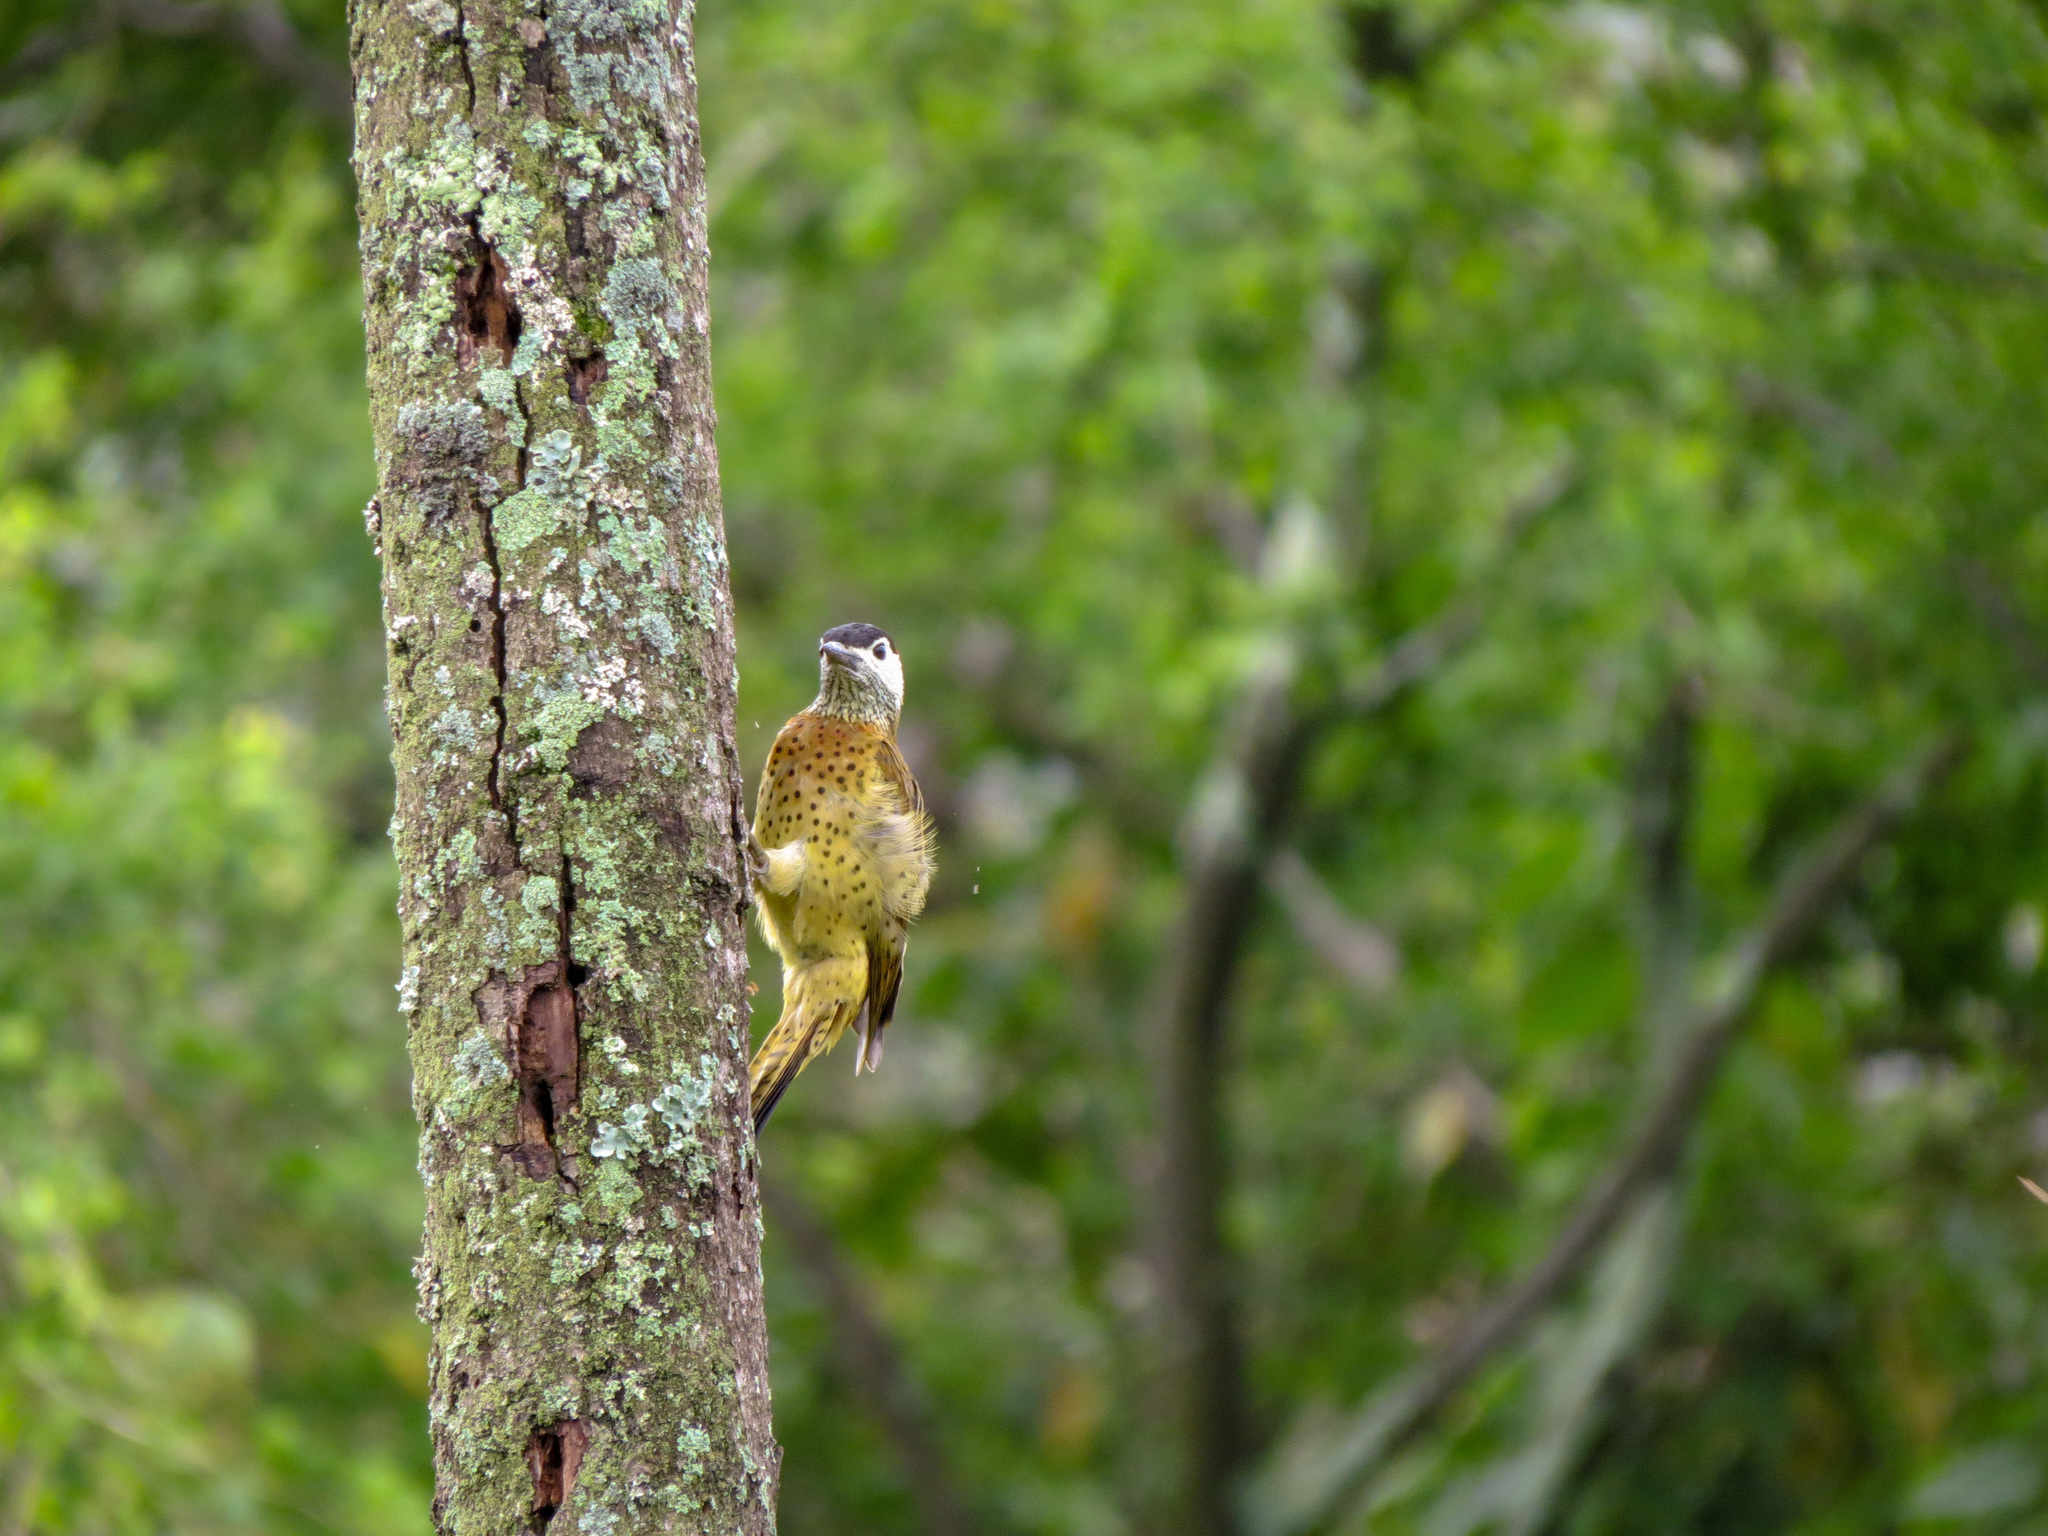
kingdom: Animalia
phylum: Chordata
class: Aves
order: Piciformes
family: Picidae
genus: Colaptes
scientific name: Colaptes punctigula
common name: Spot-breasted woodpecker
